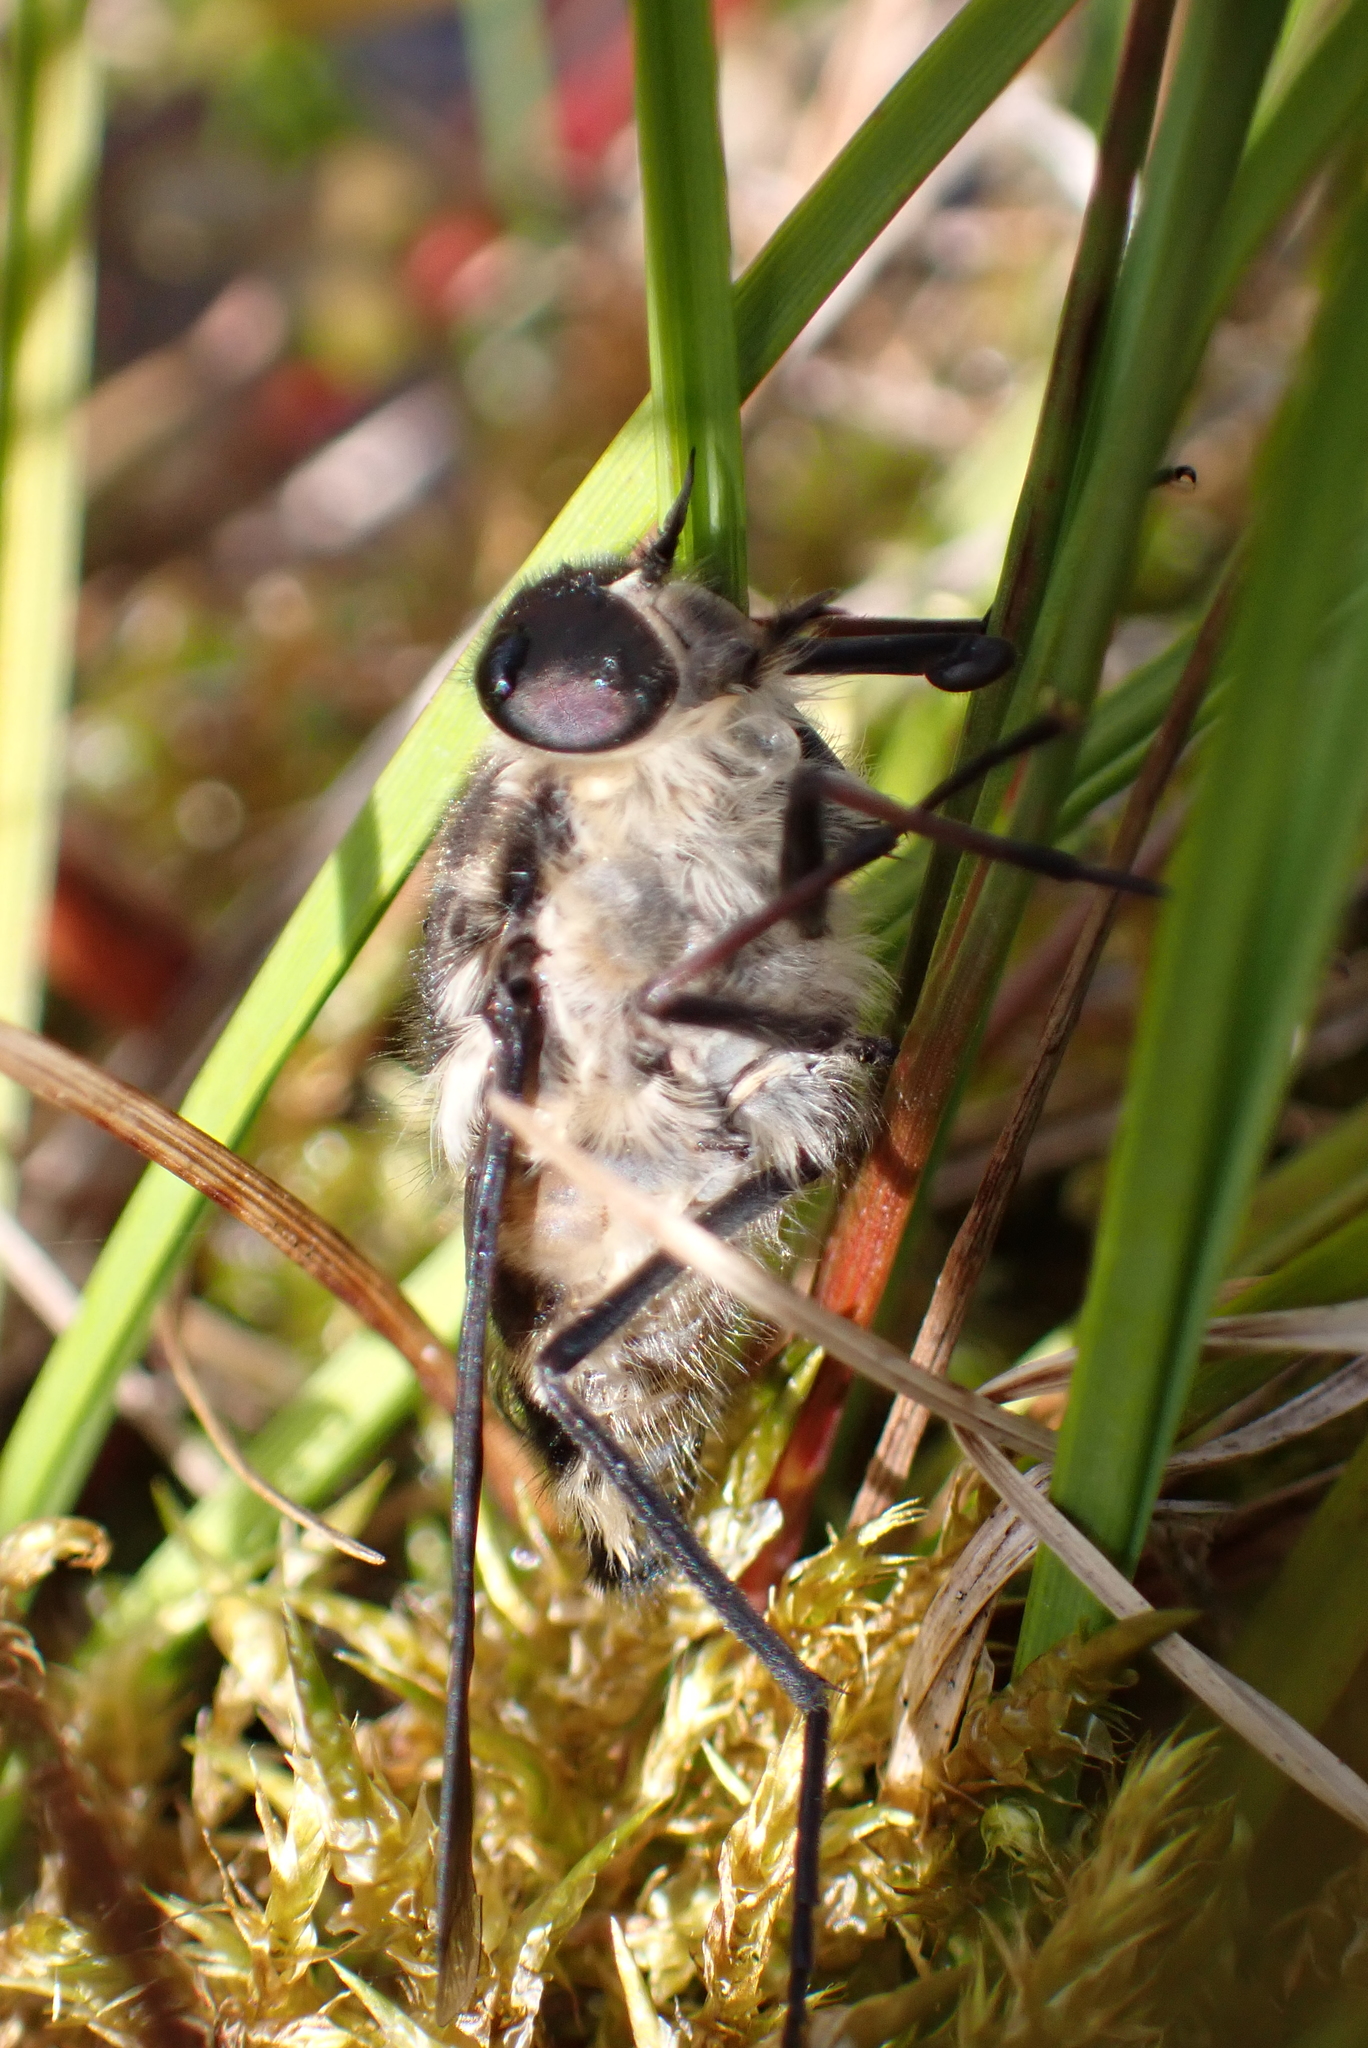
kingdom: Animalia
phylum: Arthropoda
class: Insecta
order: Diptera
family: Tabanidae
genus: Scaptia
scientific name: Scaptia
